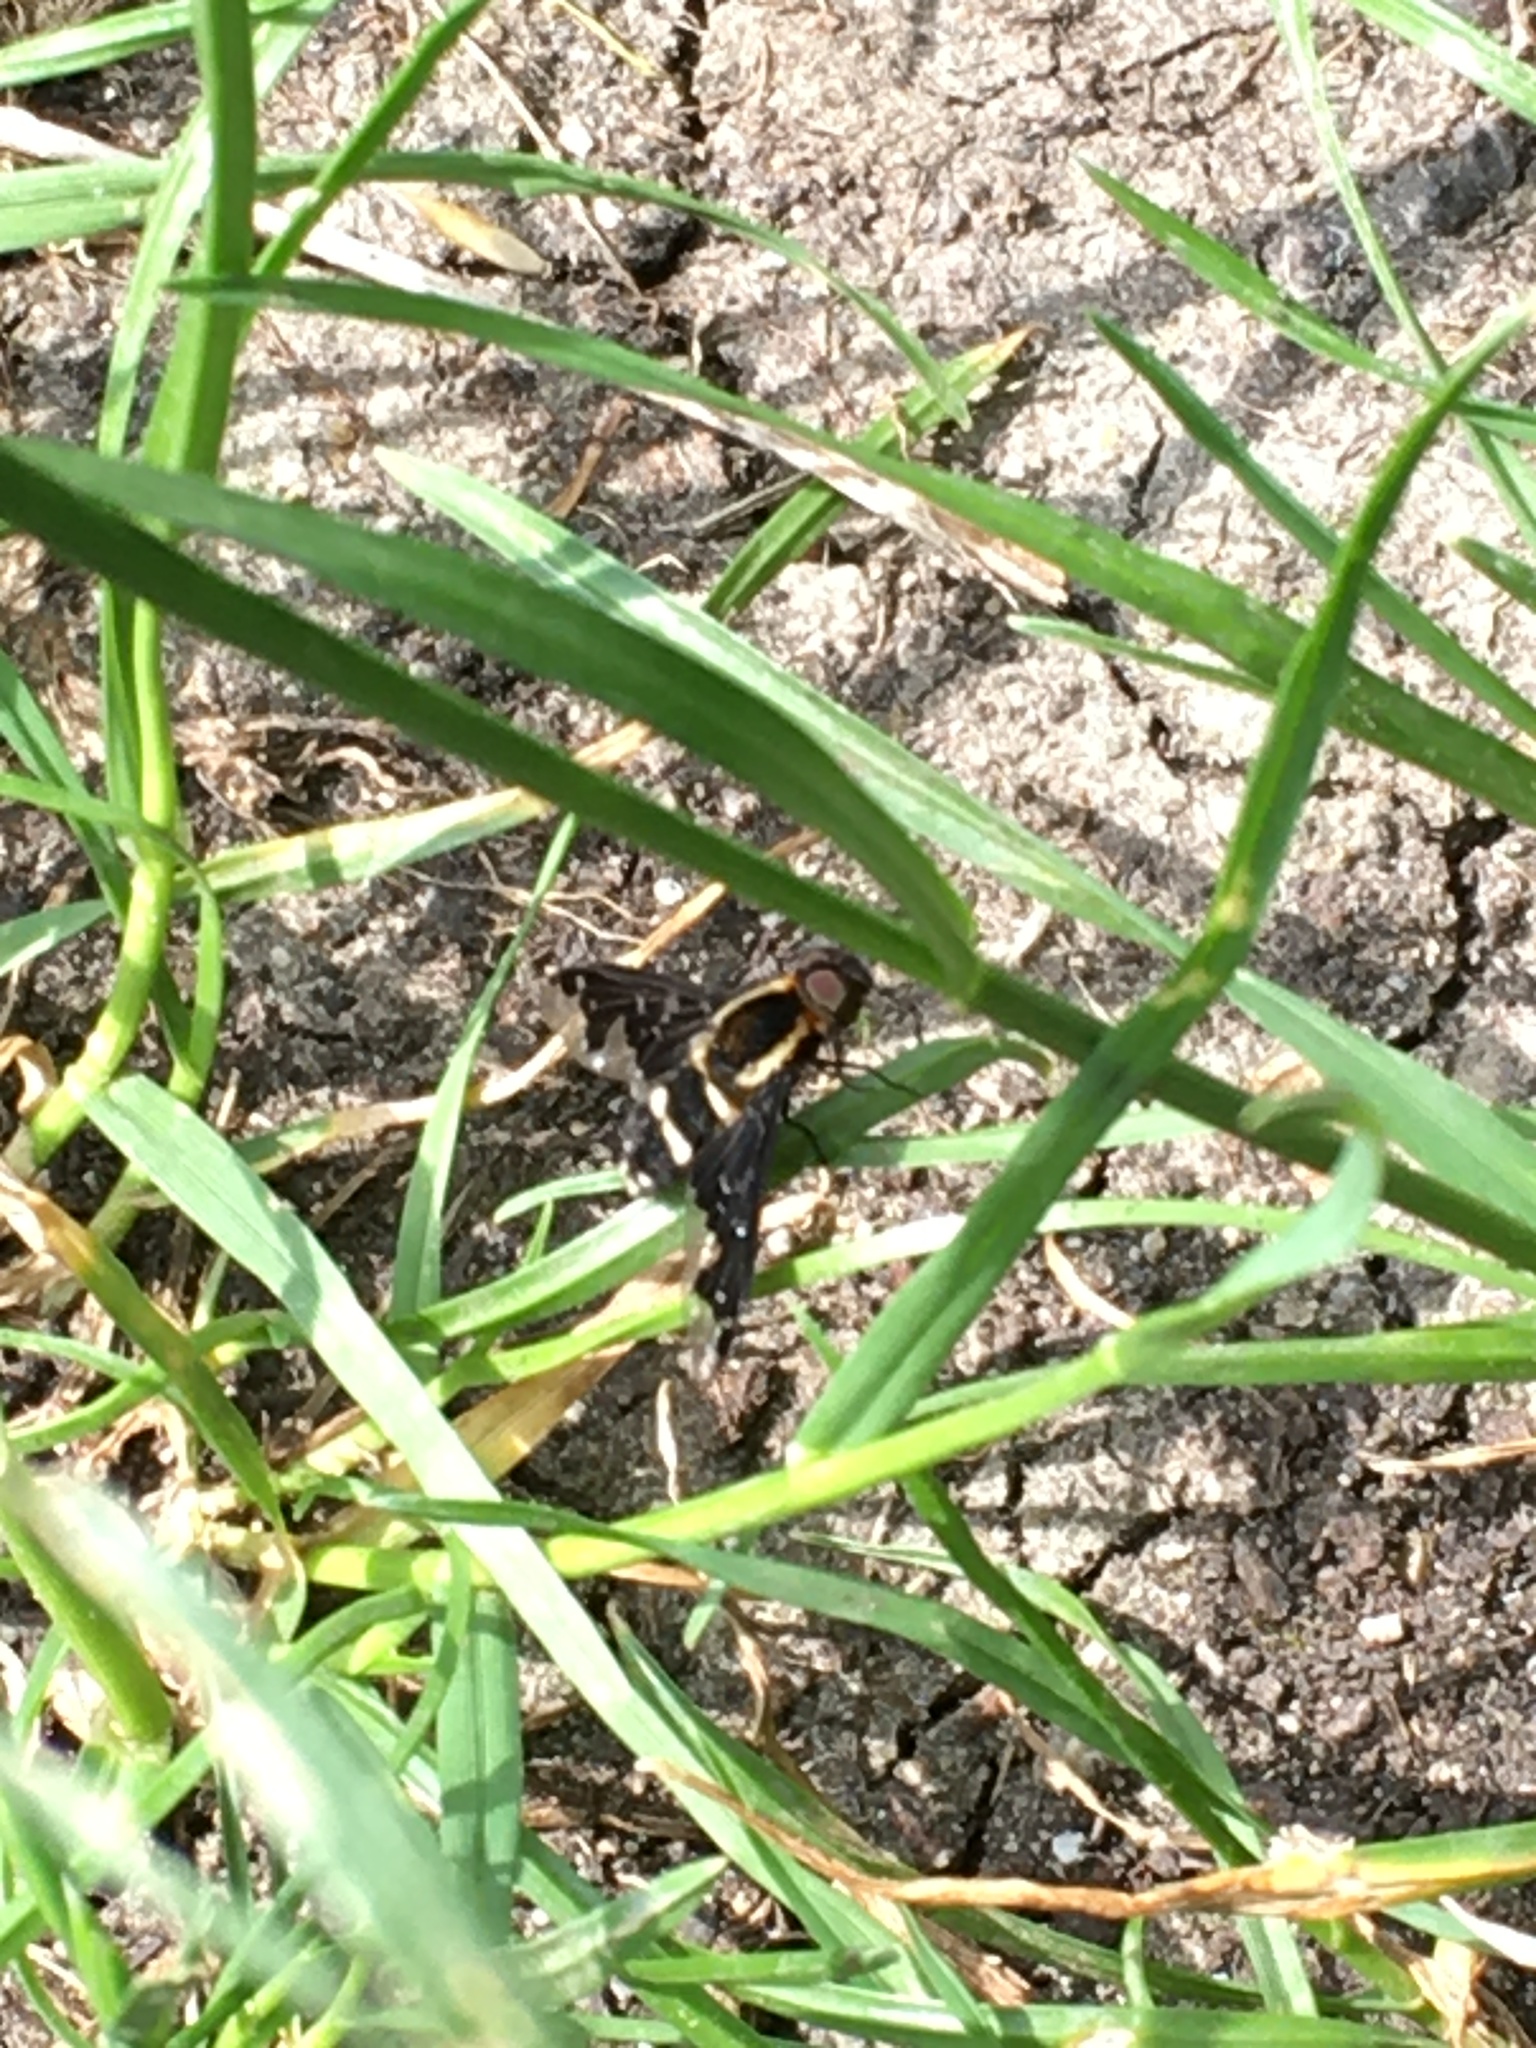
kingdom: Animalia
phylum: Arthropoda
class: Insecta
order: Diptera
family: Bombyliidae
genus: Hemipenthes
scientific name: Hemipenthes maura
